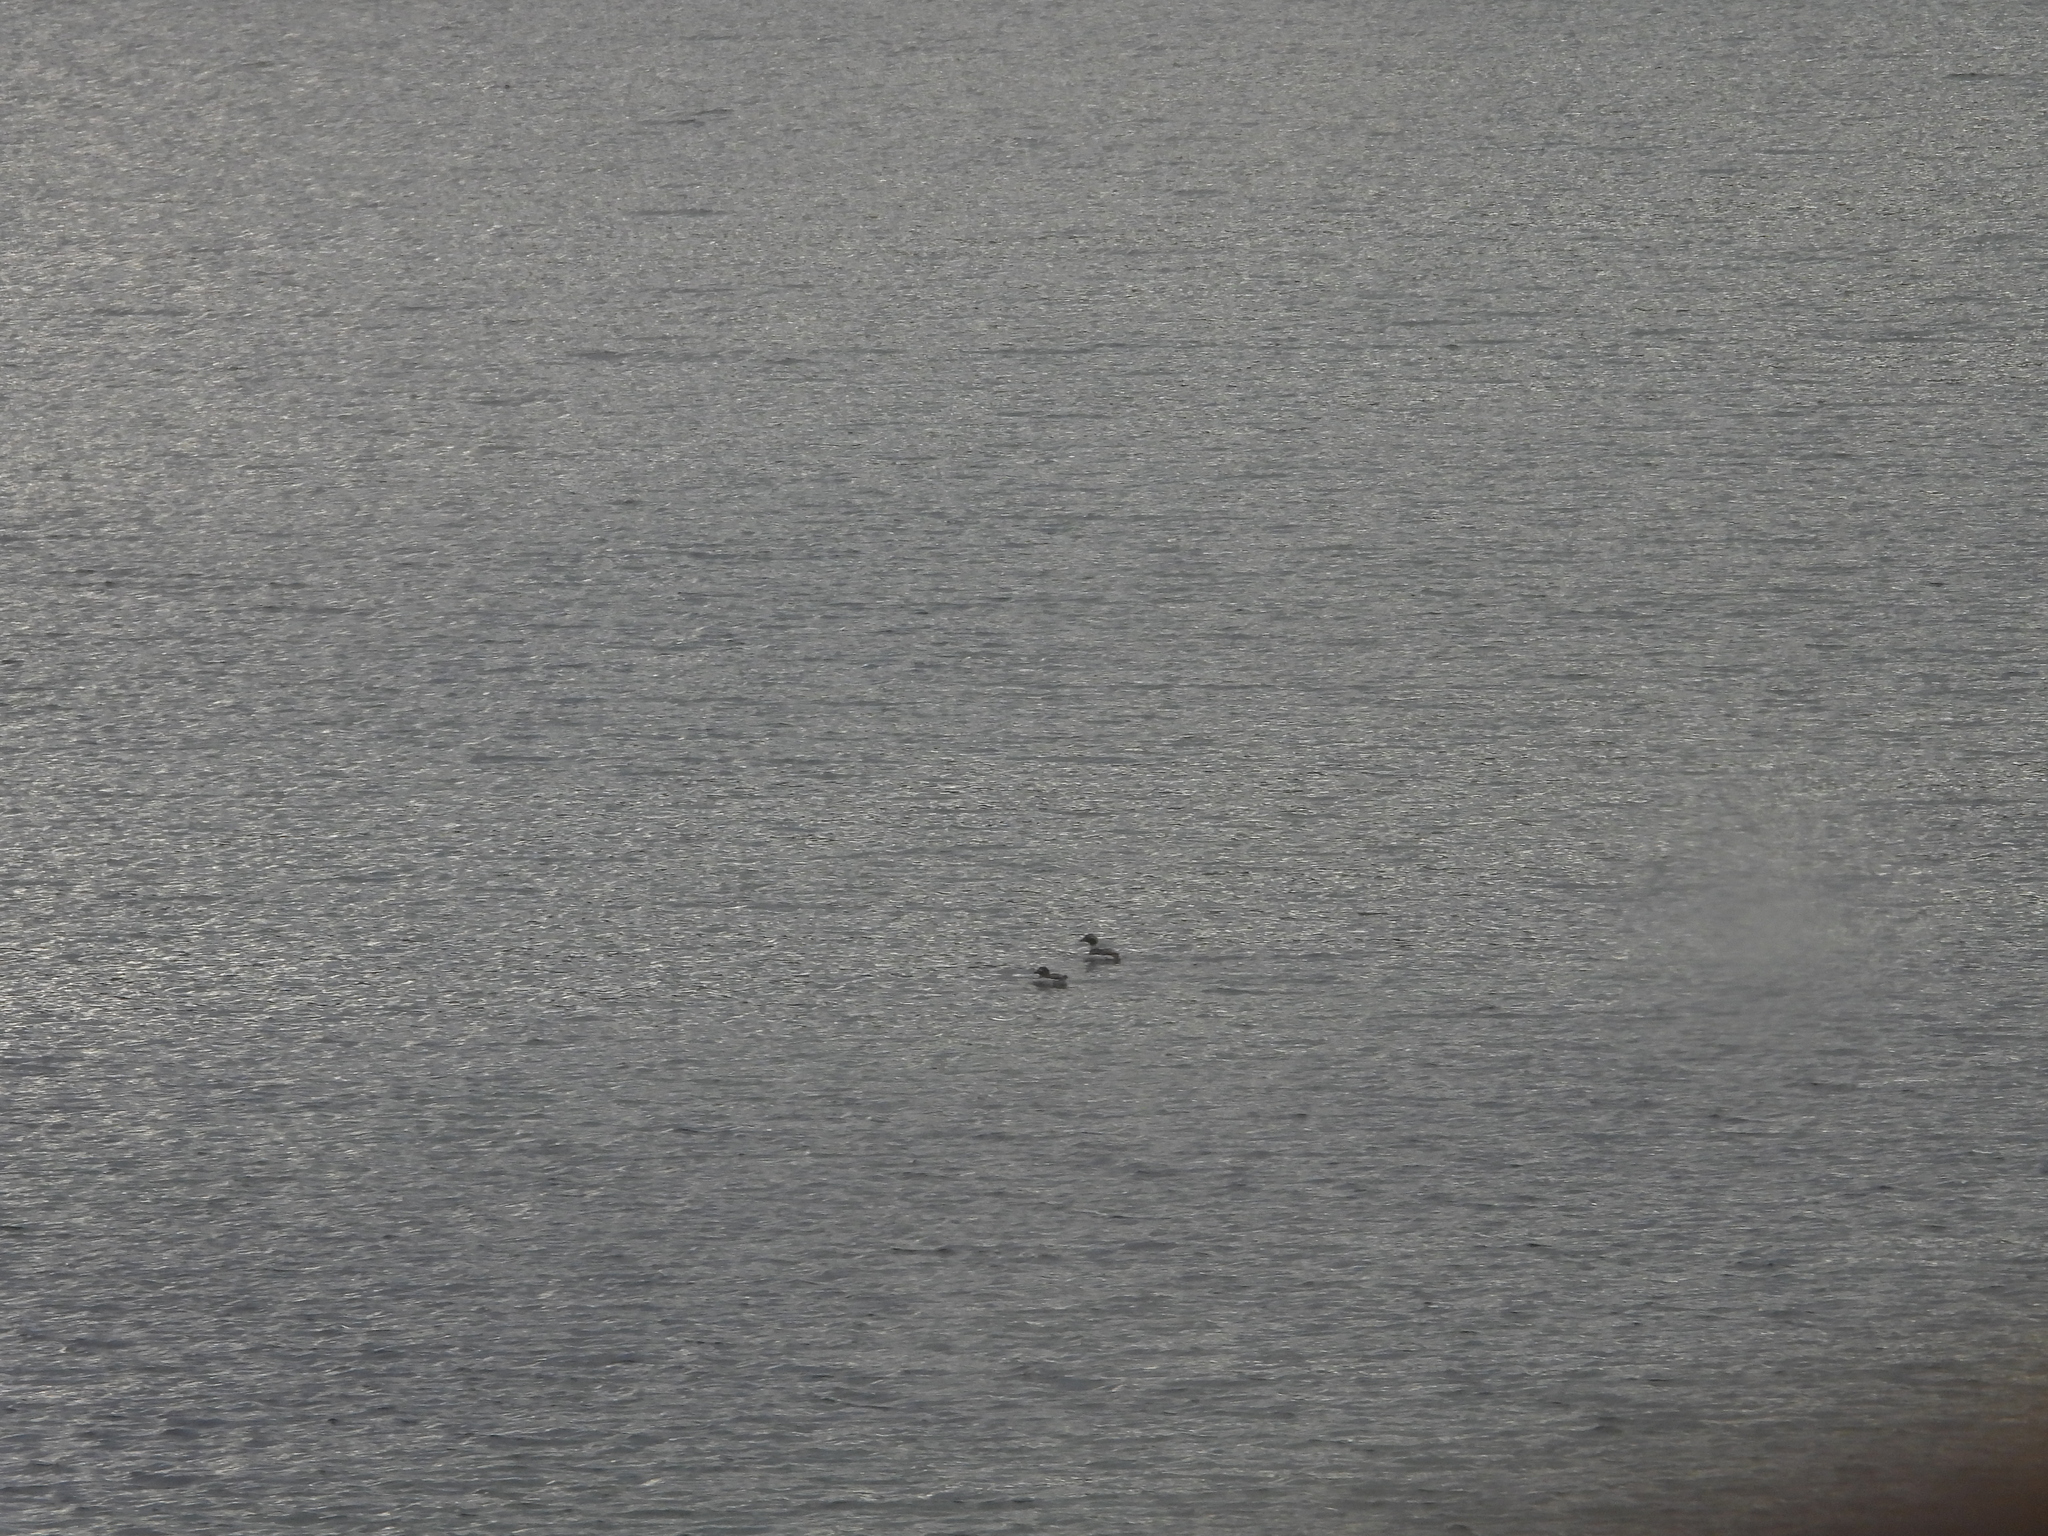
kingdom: Animalia
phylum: Chordata
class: Aves
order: Anseriformes
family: Anatidae
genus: Clangula
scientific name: Clangula hyemalis
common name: Long-tailed duck
